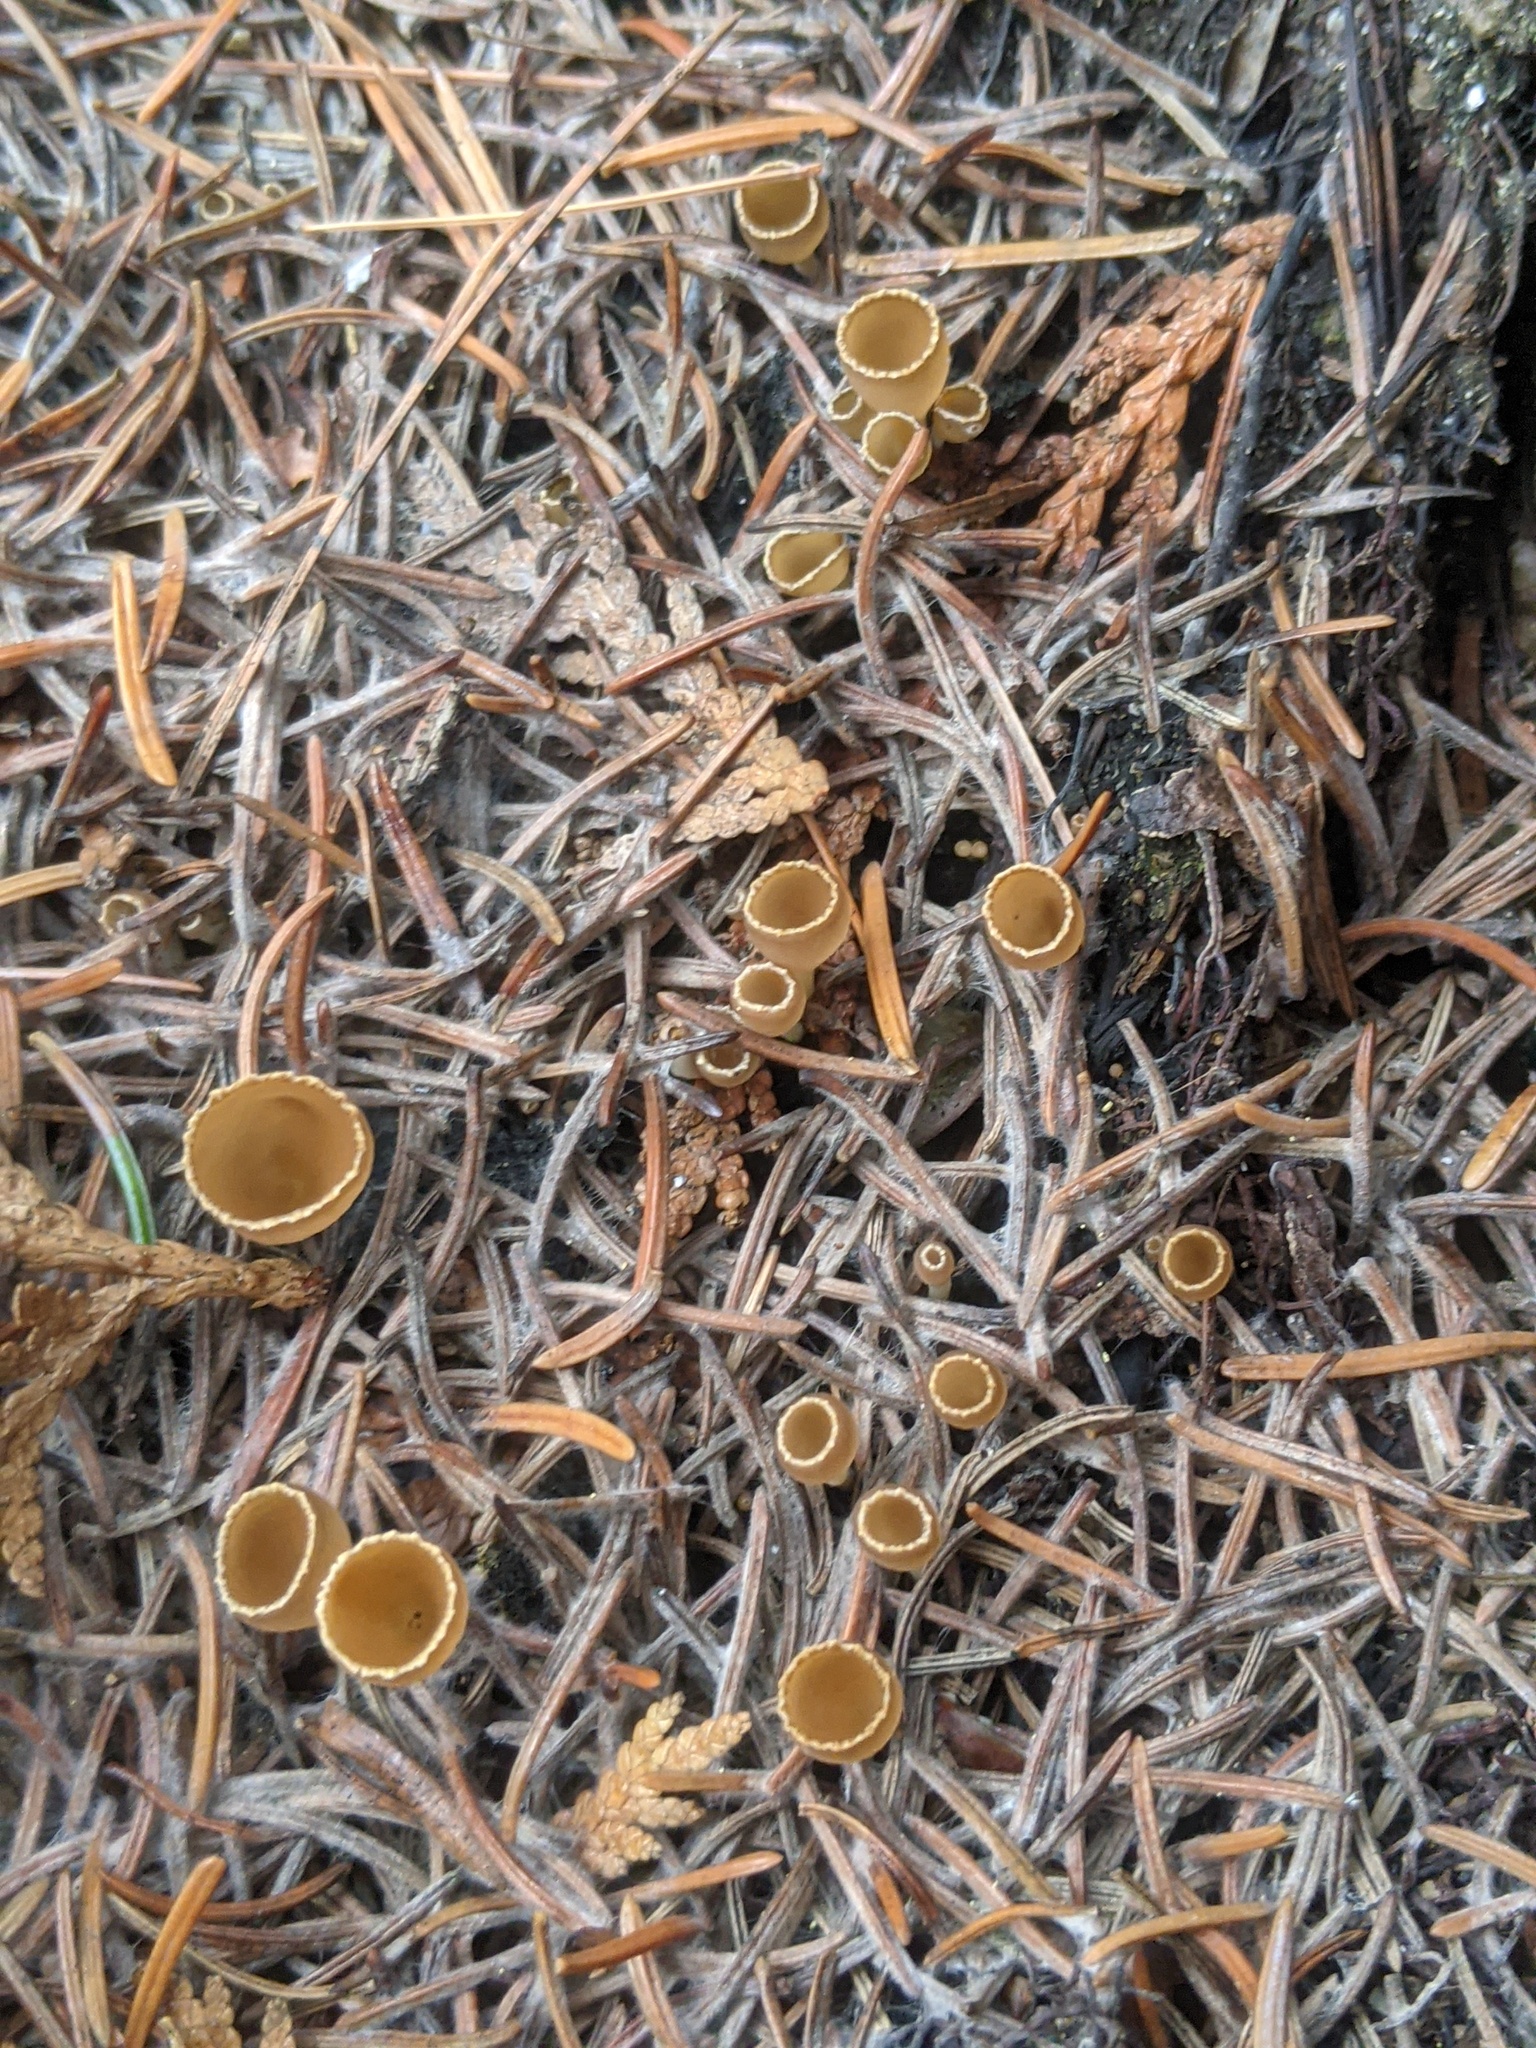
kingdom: Fungi
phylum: Ascomycota
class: Pezizomycetes
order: Pezizales
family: Pyronemataceae
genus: Geopyxis
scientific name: Geopyxis carbonaria
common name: Stalked bonfire cup
